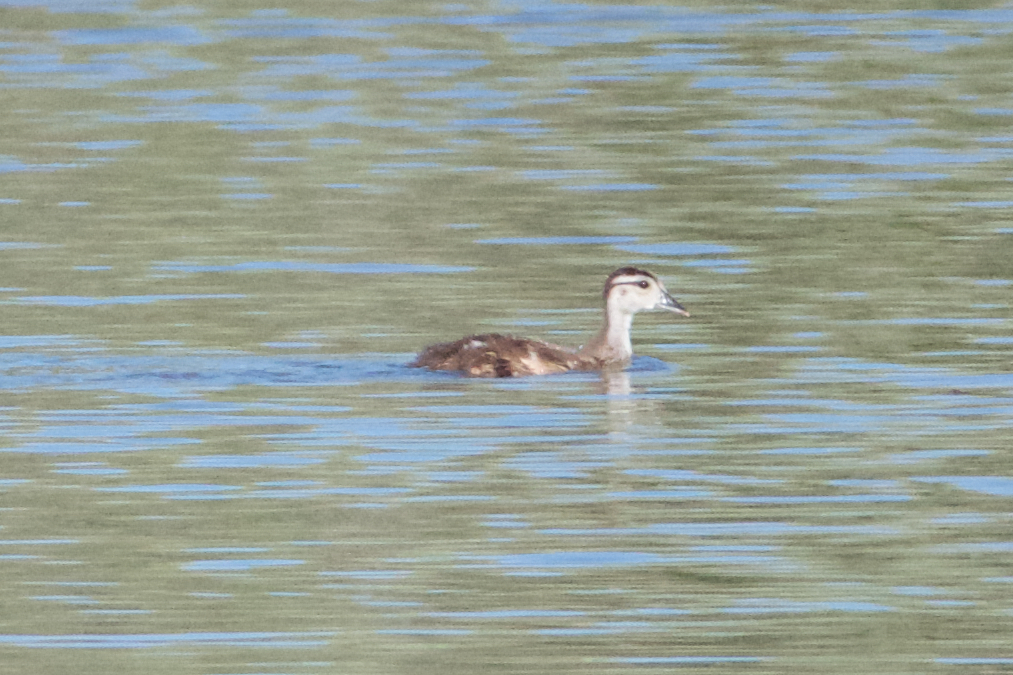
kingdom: Animalia
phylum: Chordata
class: Aves
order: Anseriformes
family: Anatidae
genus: Aix
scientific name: Aix sponsa
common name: Wood duck
